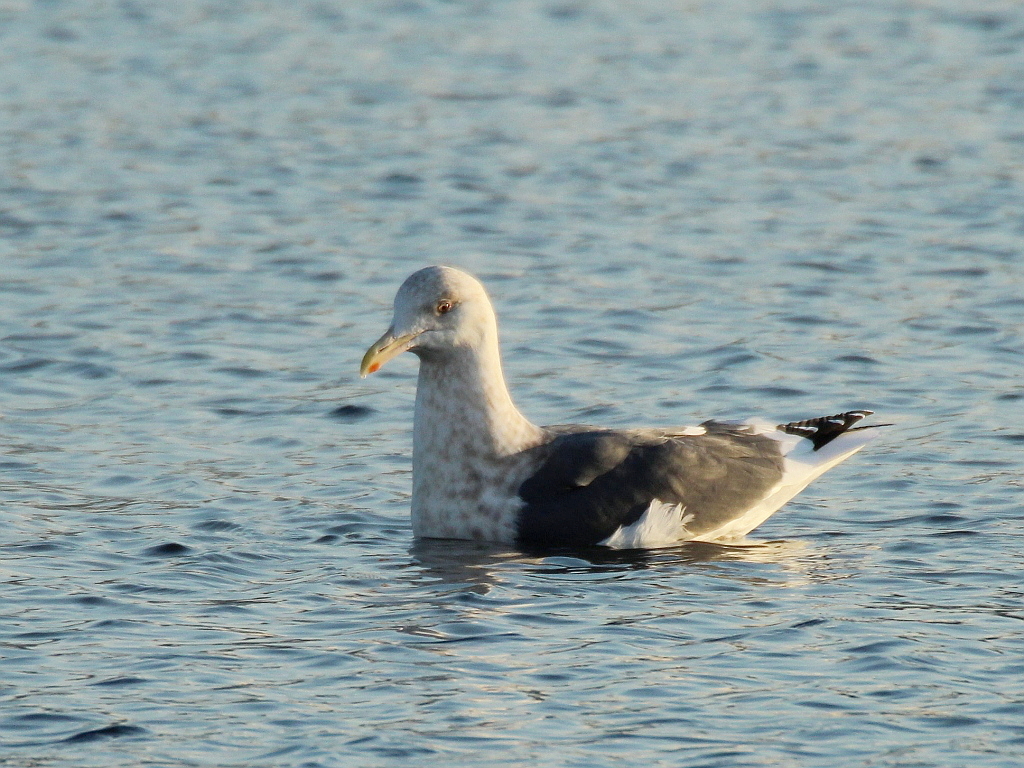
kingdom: Animalia
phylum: Chordata
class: Aves
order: Charadriiformes
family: Laridae
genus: Larus
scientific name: Larus schistisagus
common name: Slaty-backed gull
